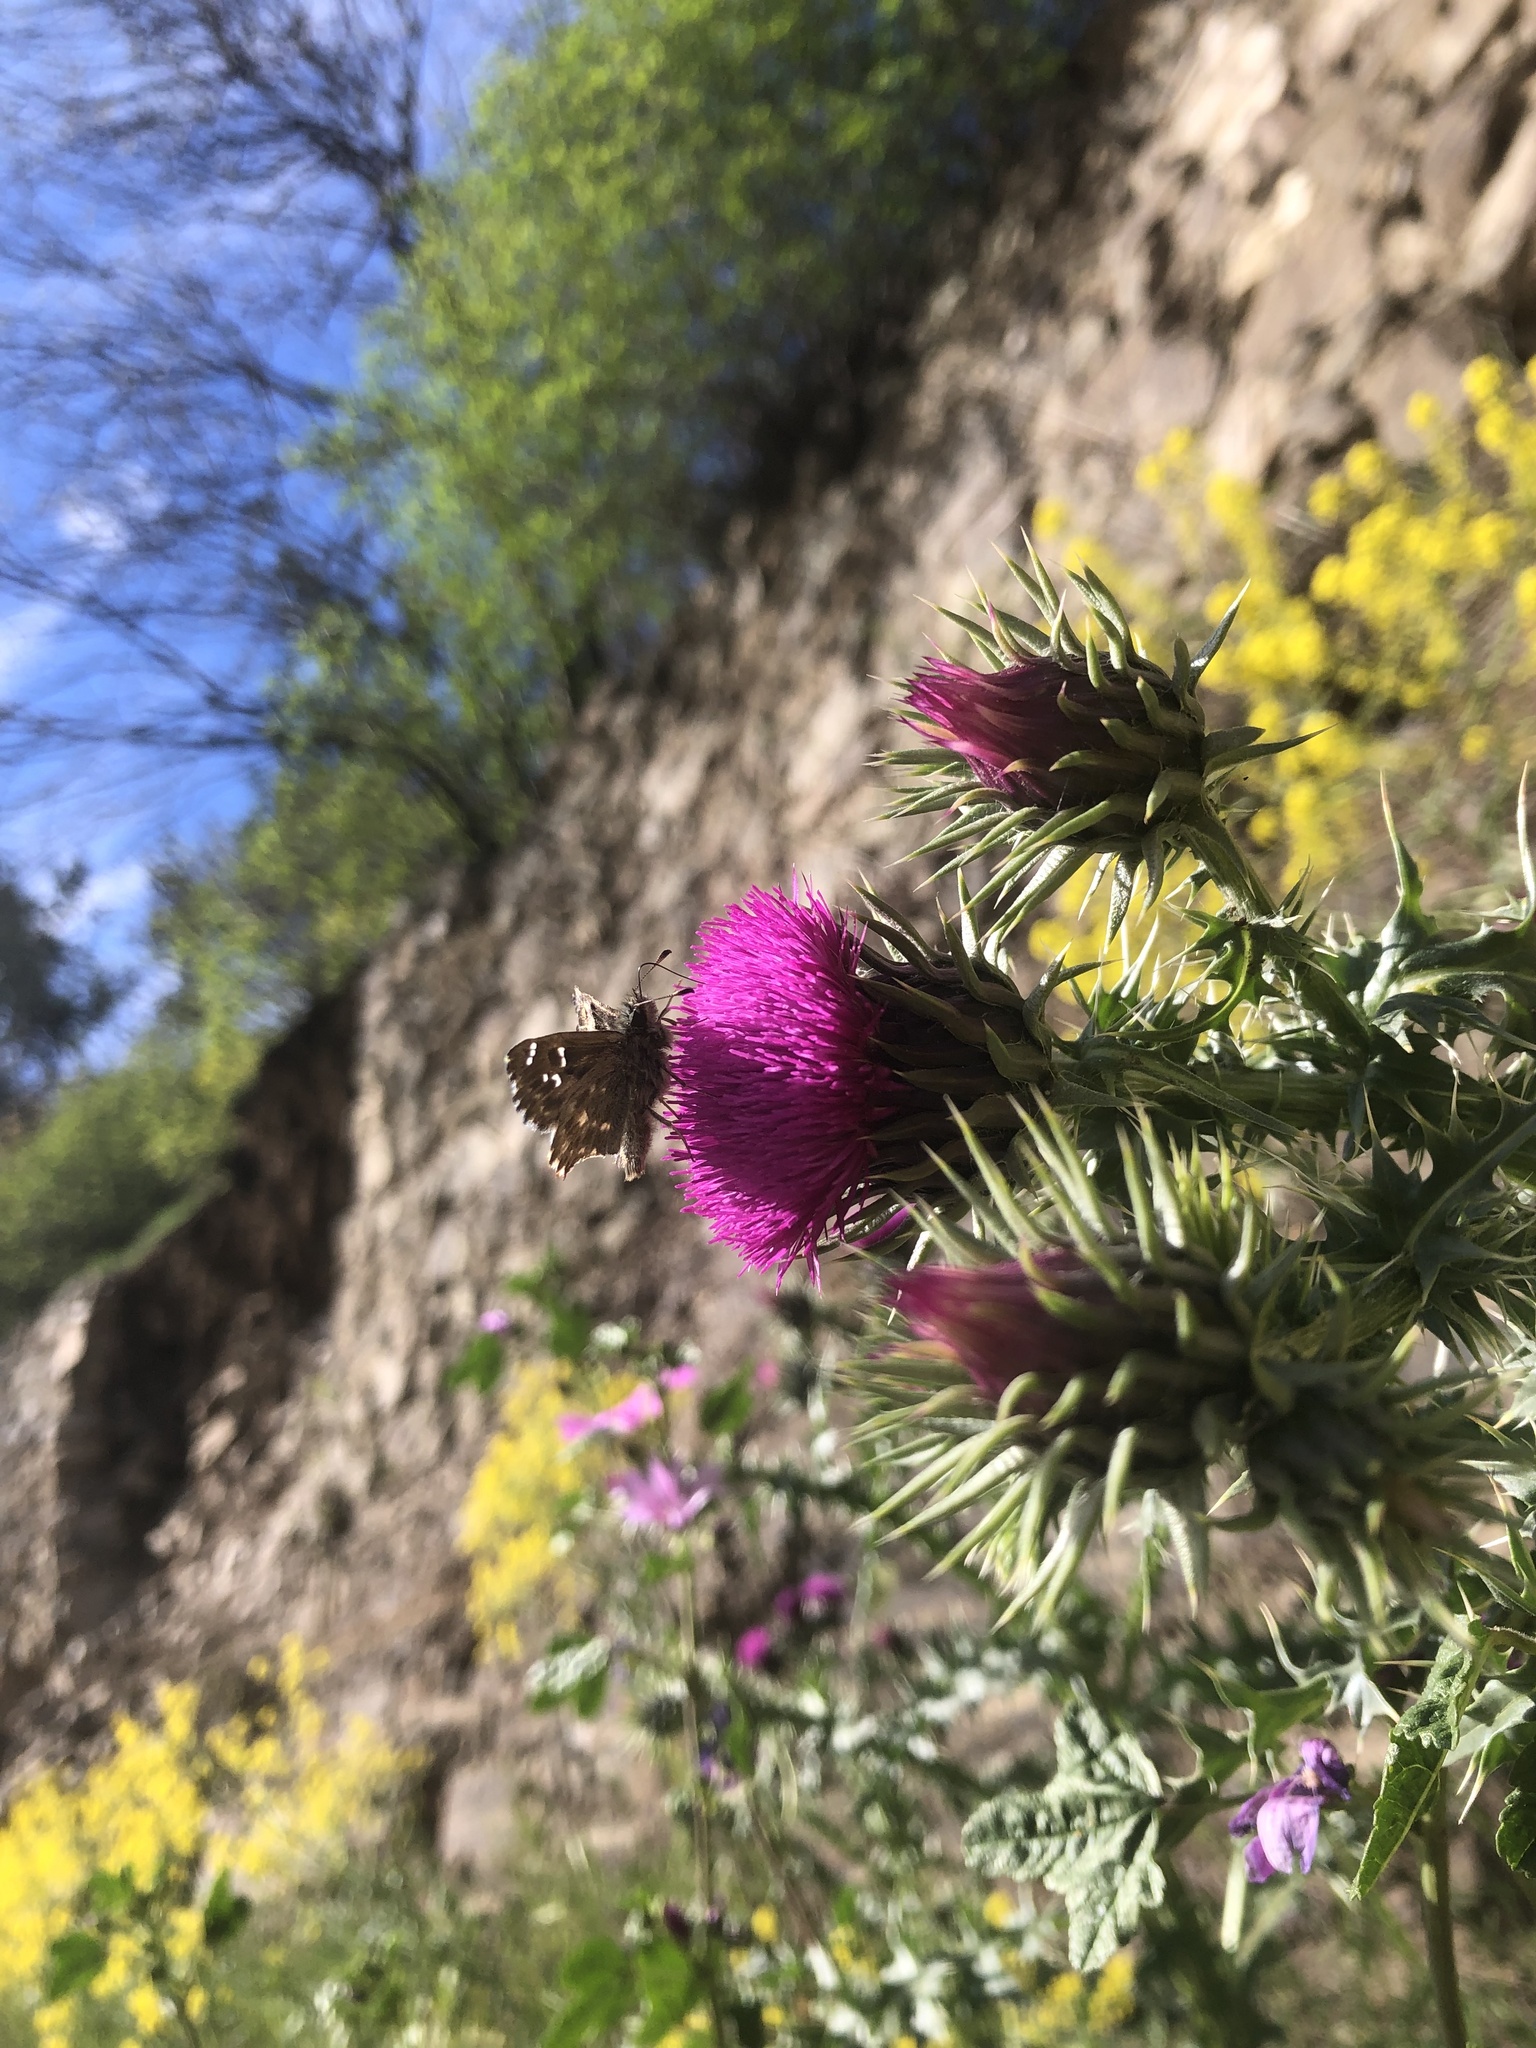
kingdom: Animalia
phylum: Arthropoda
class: Insecta
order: Lepidoptera
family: Hesperiidae
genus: Carcharodus
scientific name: Carcharodus alceae
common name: Mallow skipper
